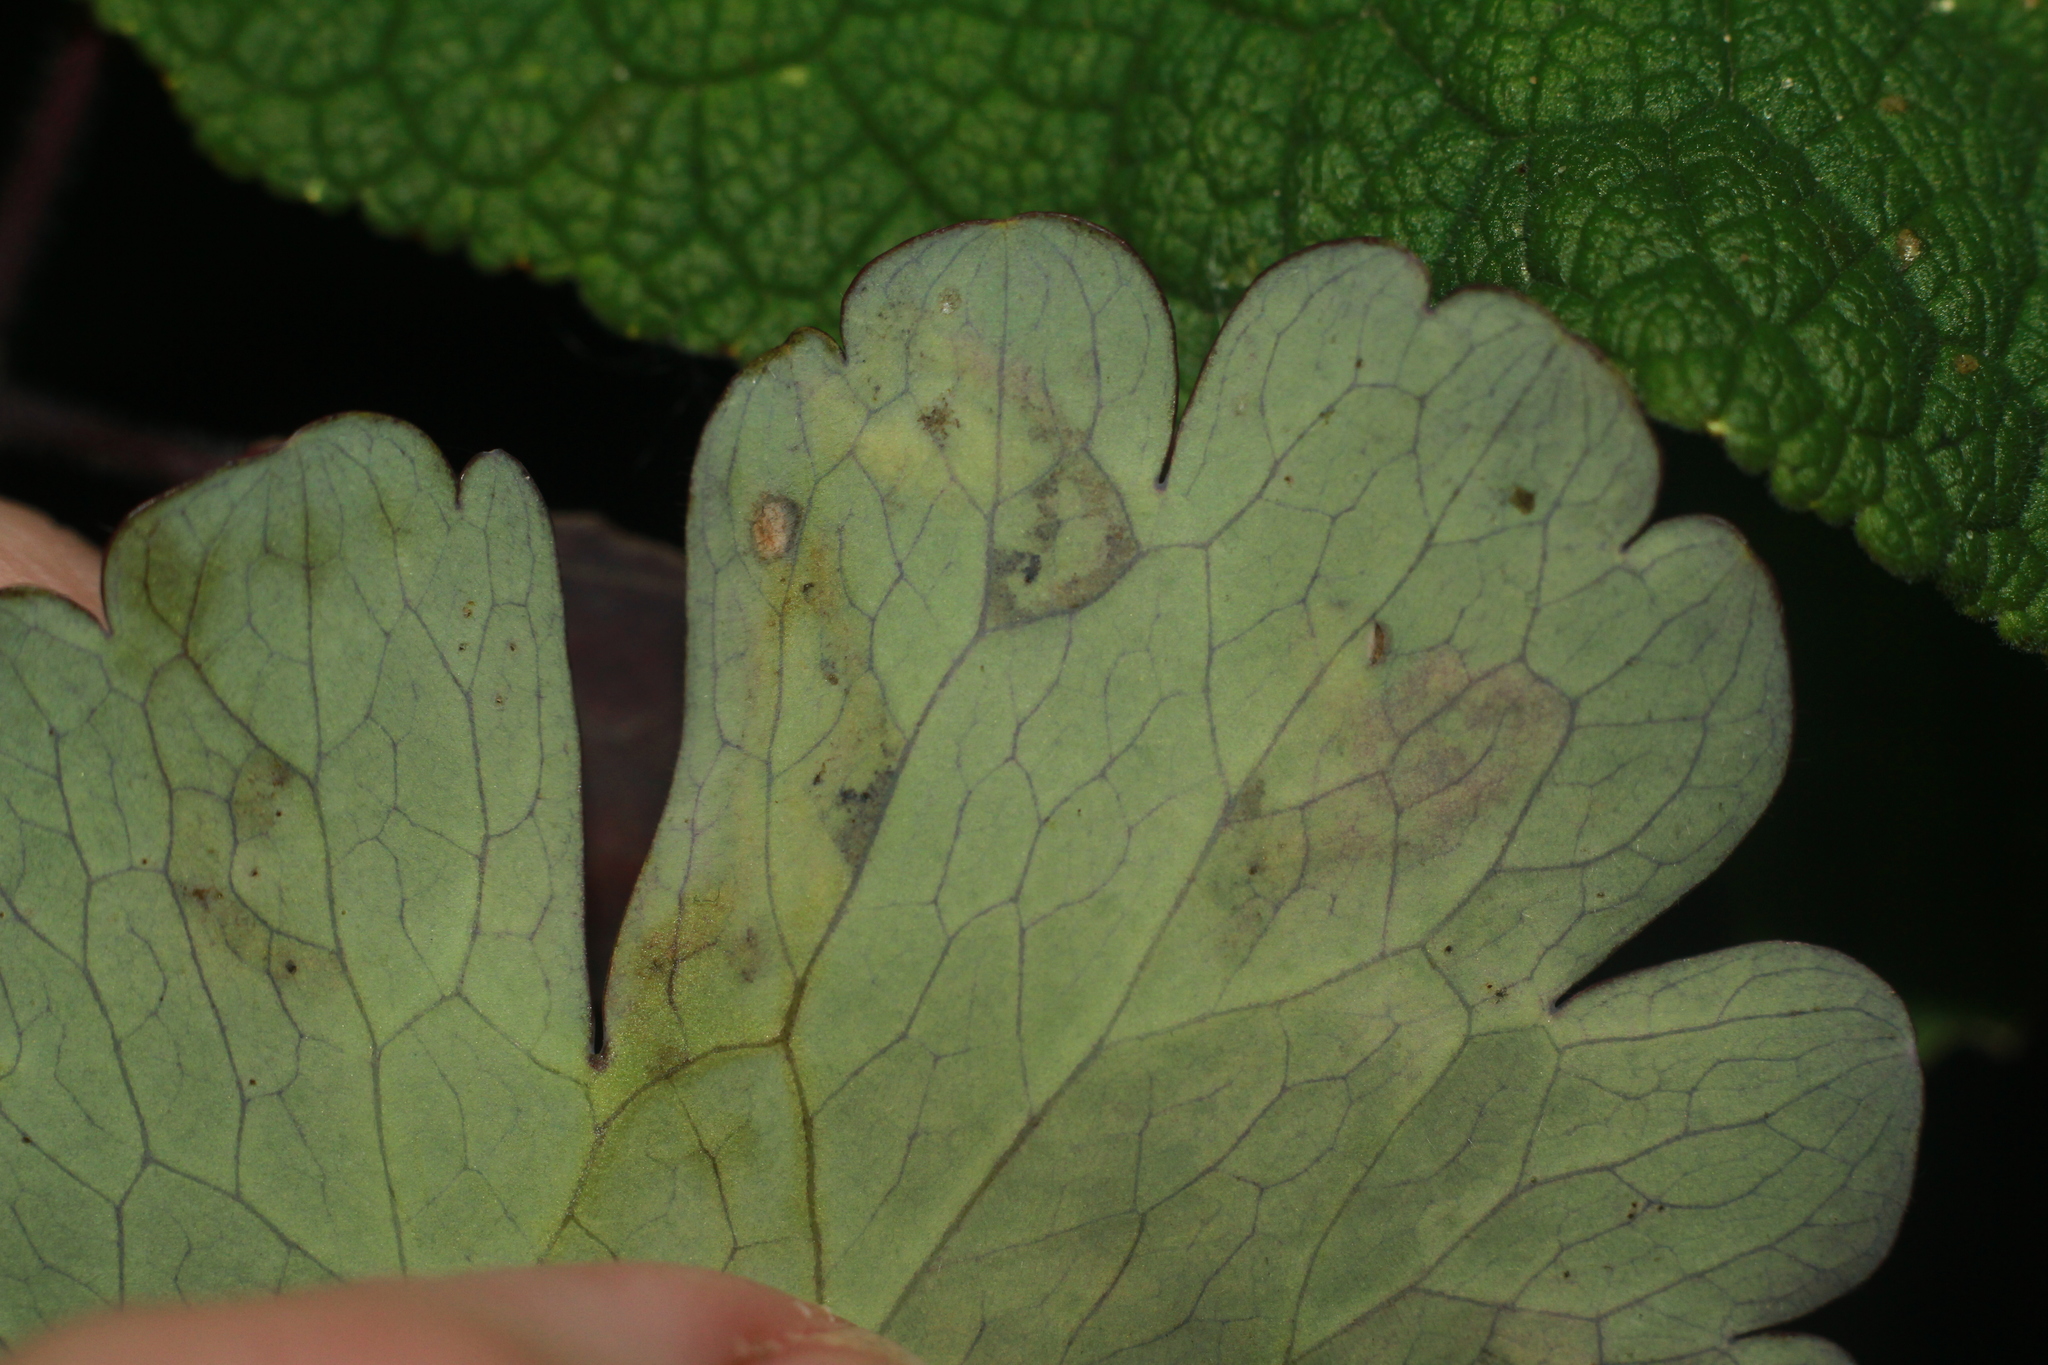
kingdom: Animalia
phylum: Arthropoda
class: Insecta
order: Diptera
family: Agromyzidae
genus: Phytomyza
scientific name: Phytomyza ancholiae
